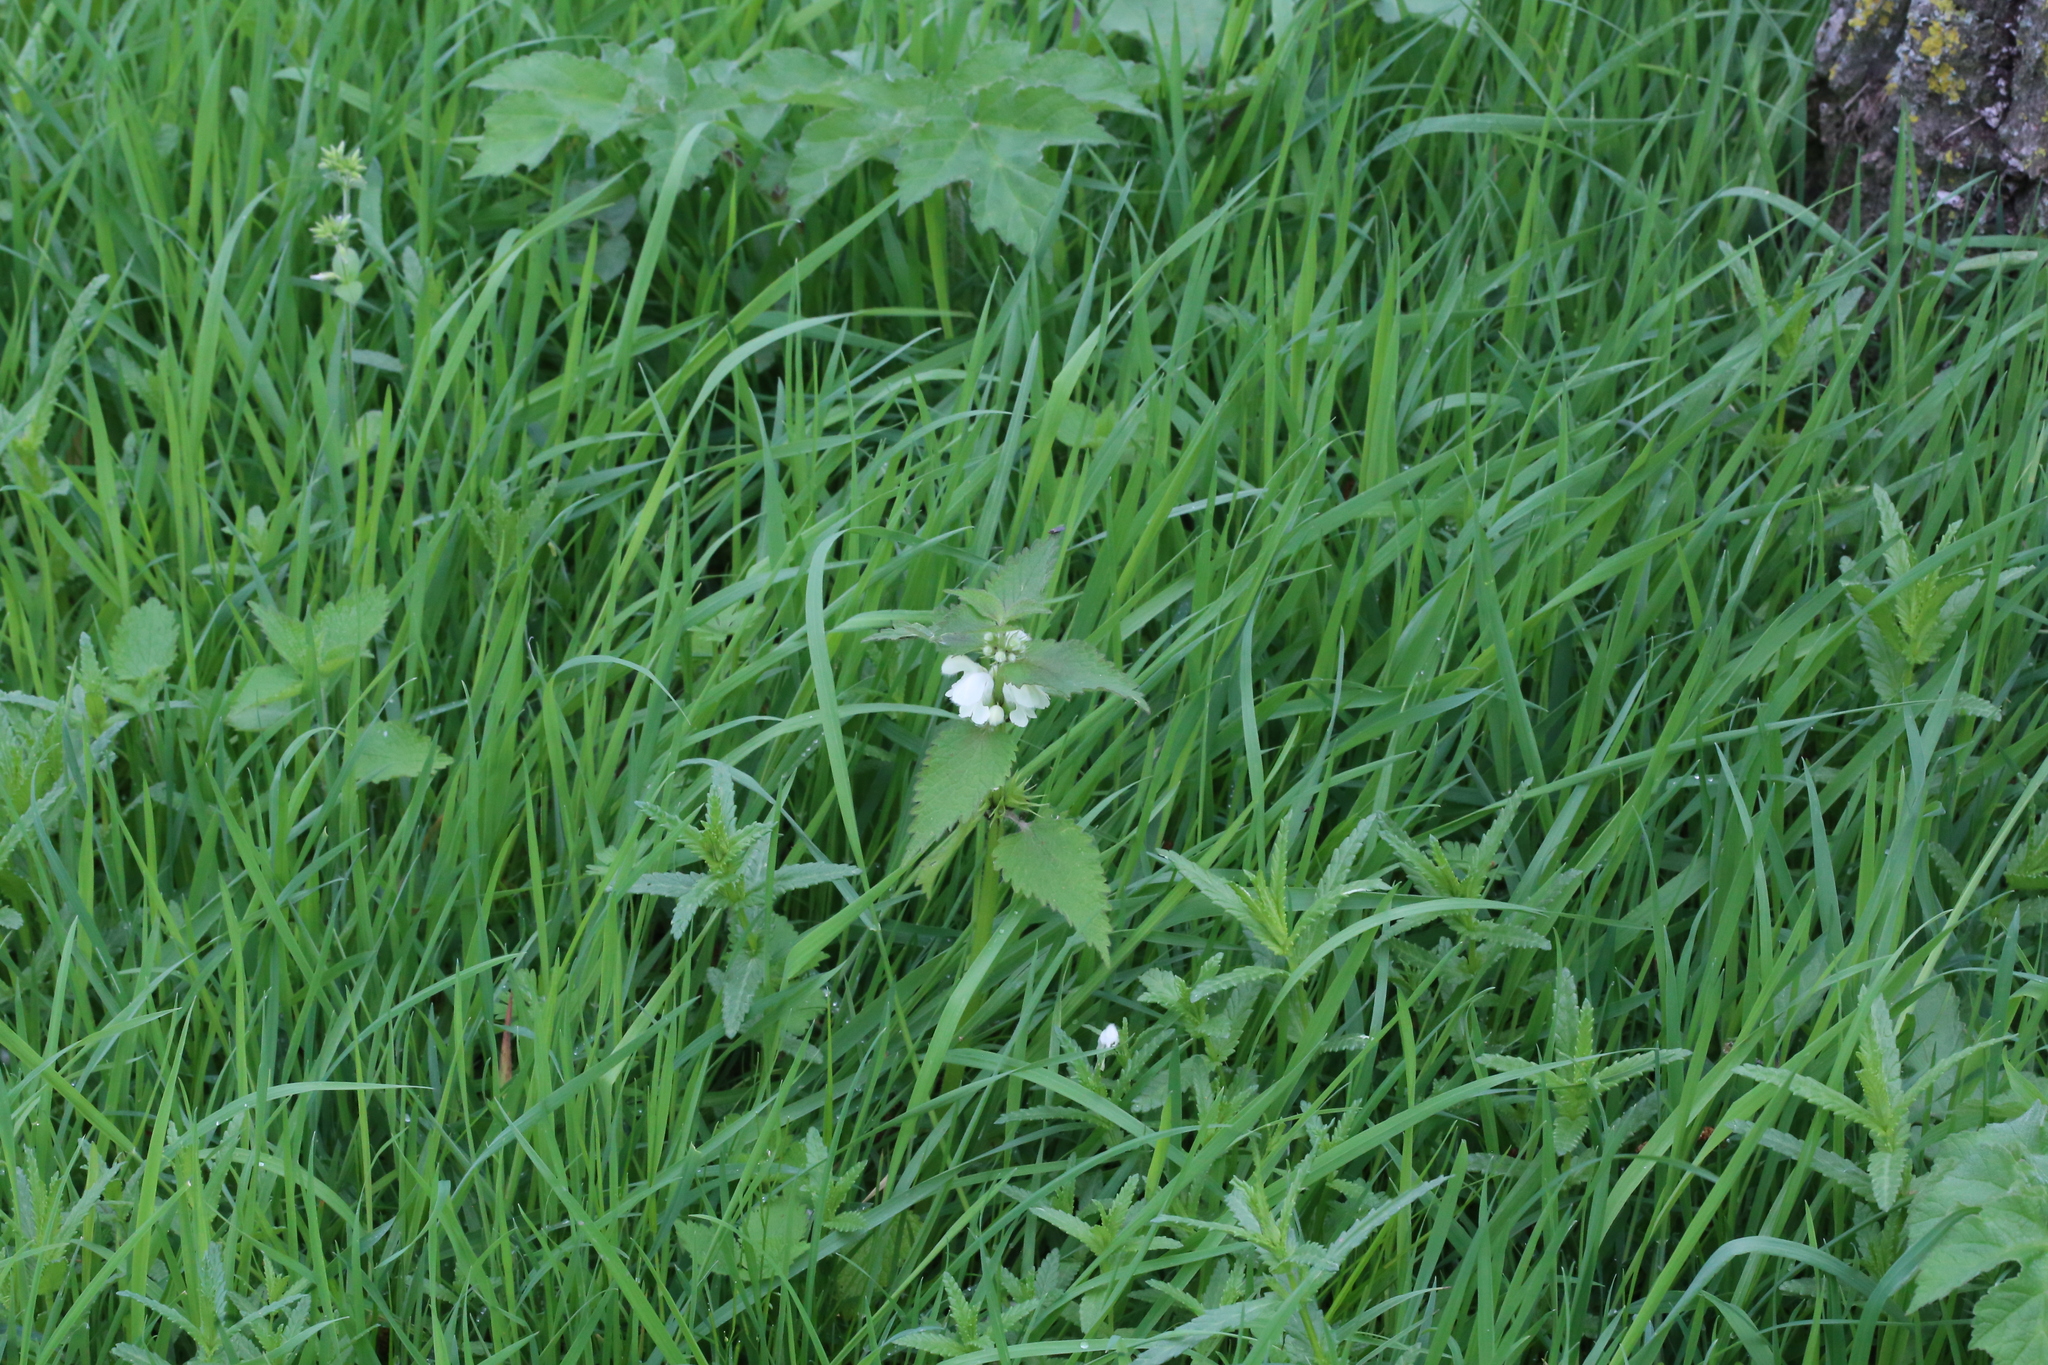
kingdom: Plantae
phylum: Tracheophyta
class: Magnoliopsida
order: Lamiales
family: Lamiaceae
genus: Lamium
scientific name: Lamium album
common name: White dead-nettle
